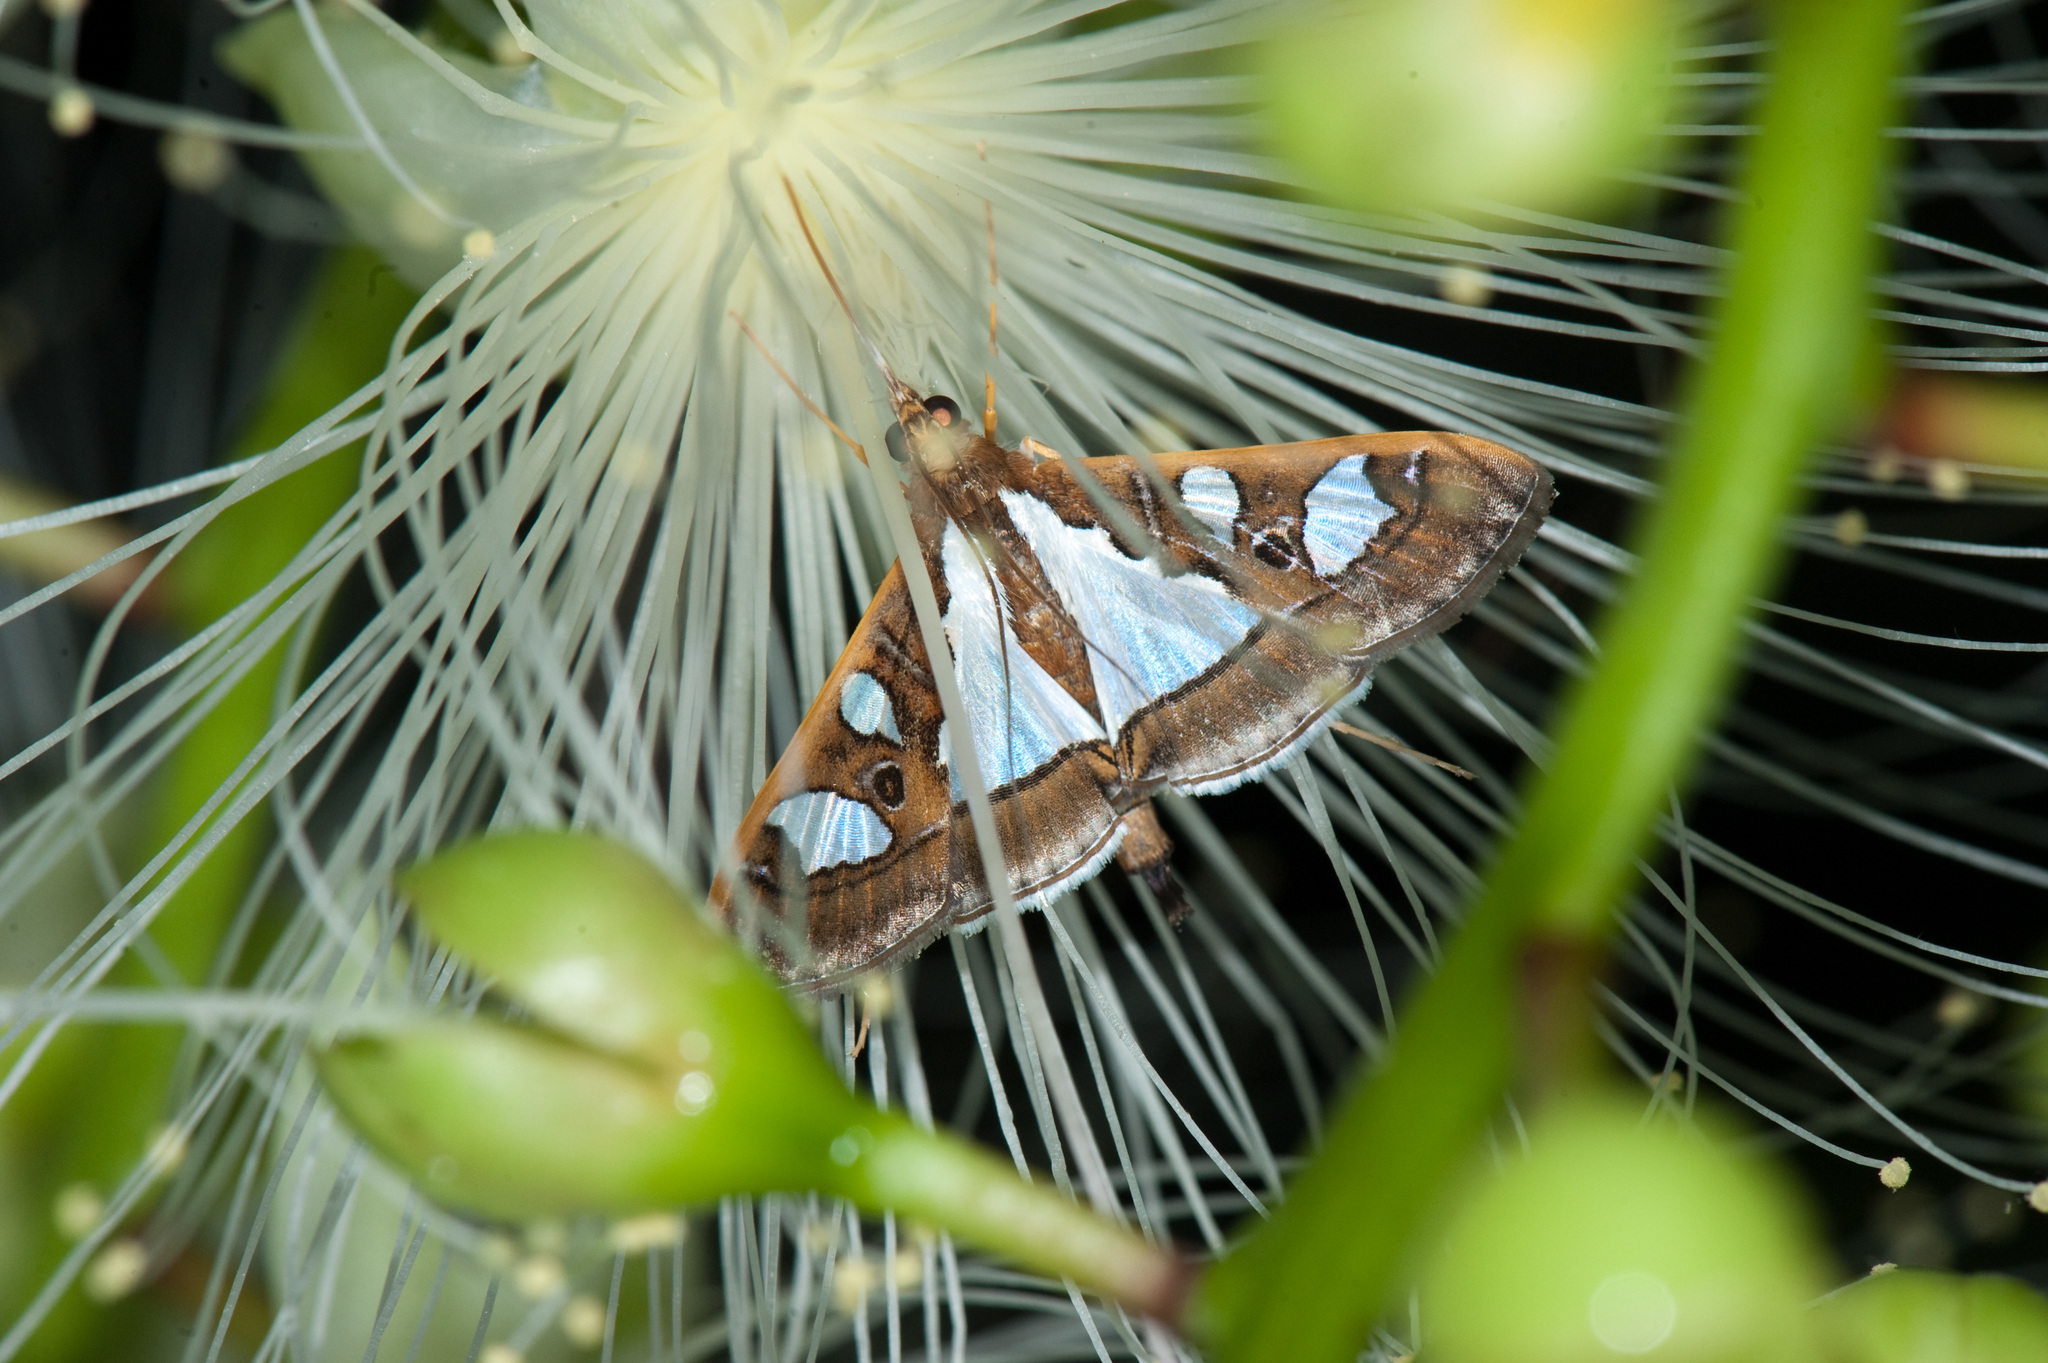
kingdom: Animalia
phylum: Arthropoda
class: Insecta
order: Lepidoptera
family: Crambidae
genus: Glyphodes
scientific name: Glyphodes bivitralis
